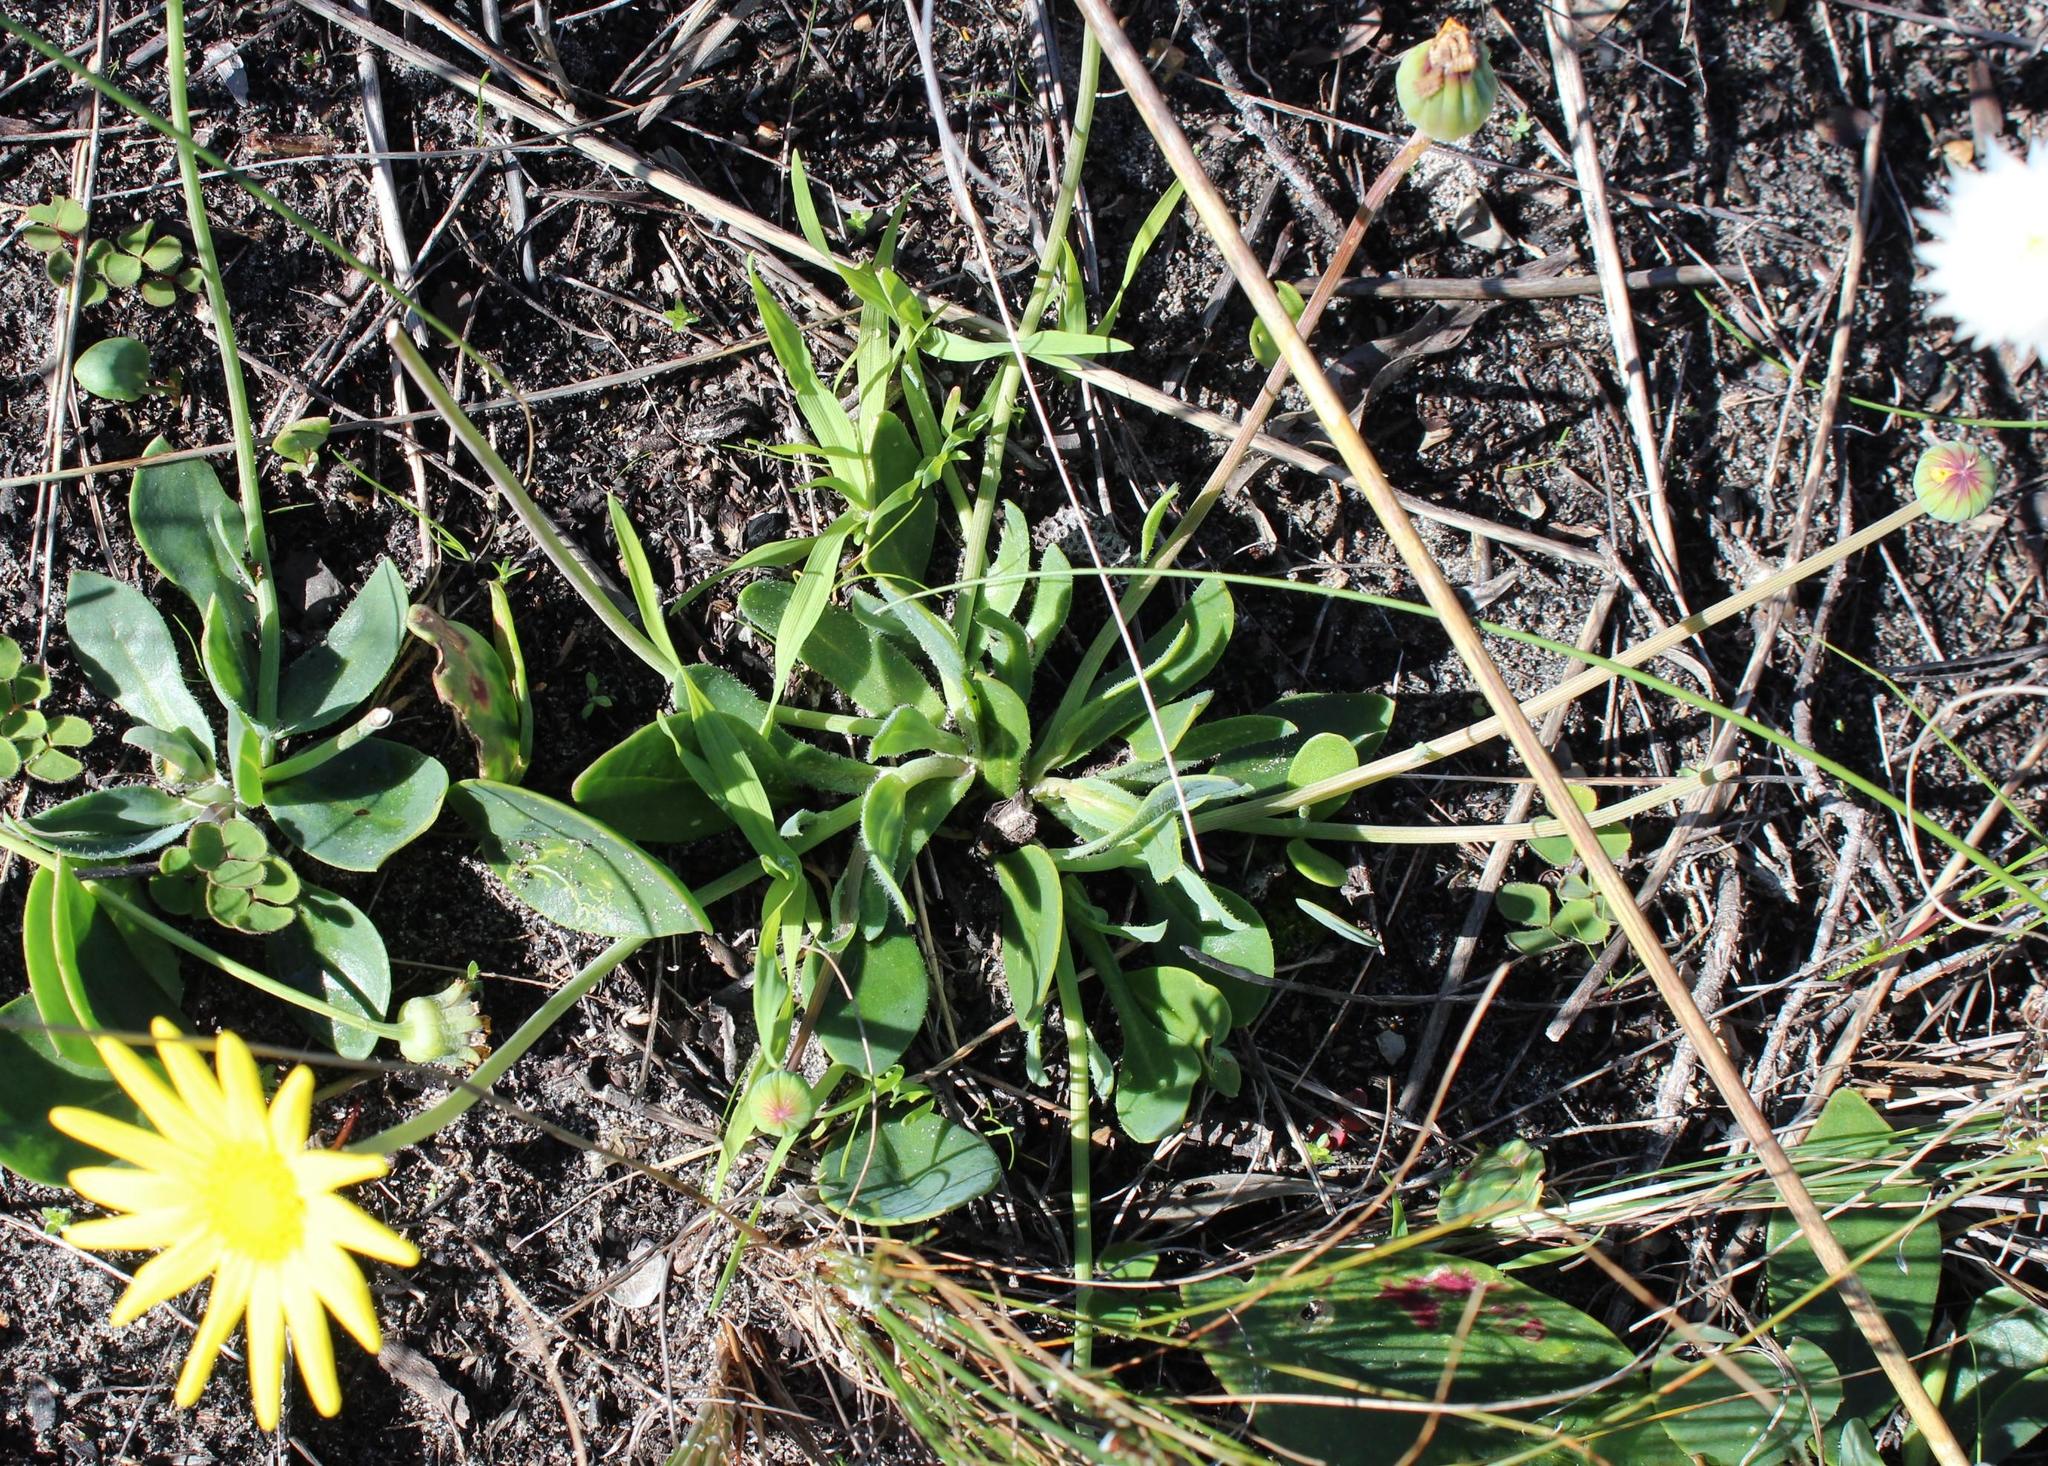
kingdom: Plantae
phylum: Tracheophyta
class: Magnoliopsida
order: Asterales
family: Asteraceae
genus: Othonna
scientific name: Othonna bulbosa
